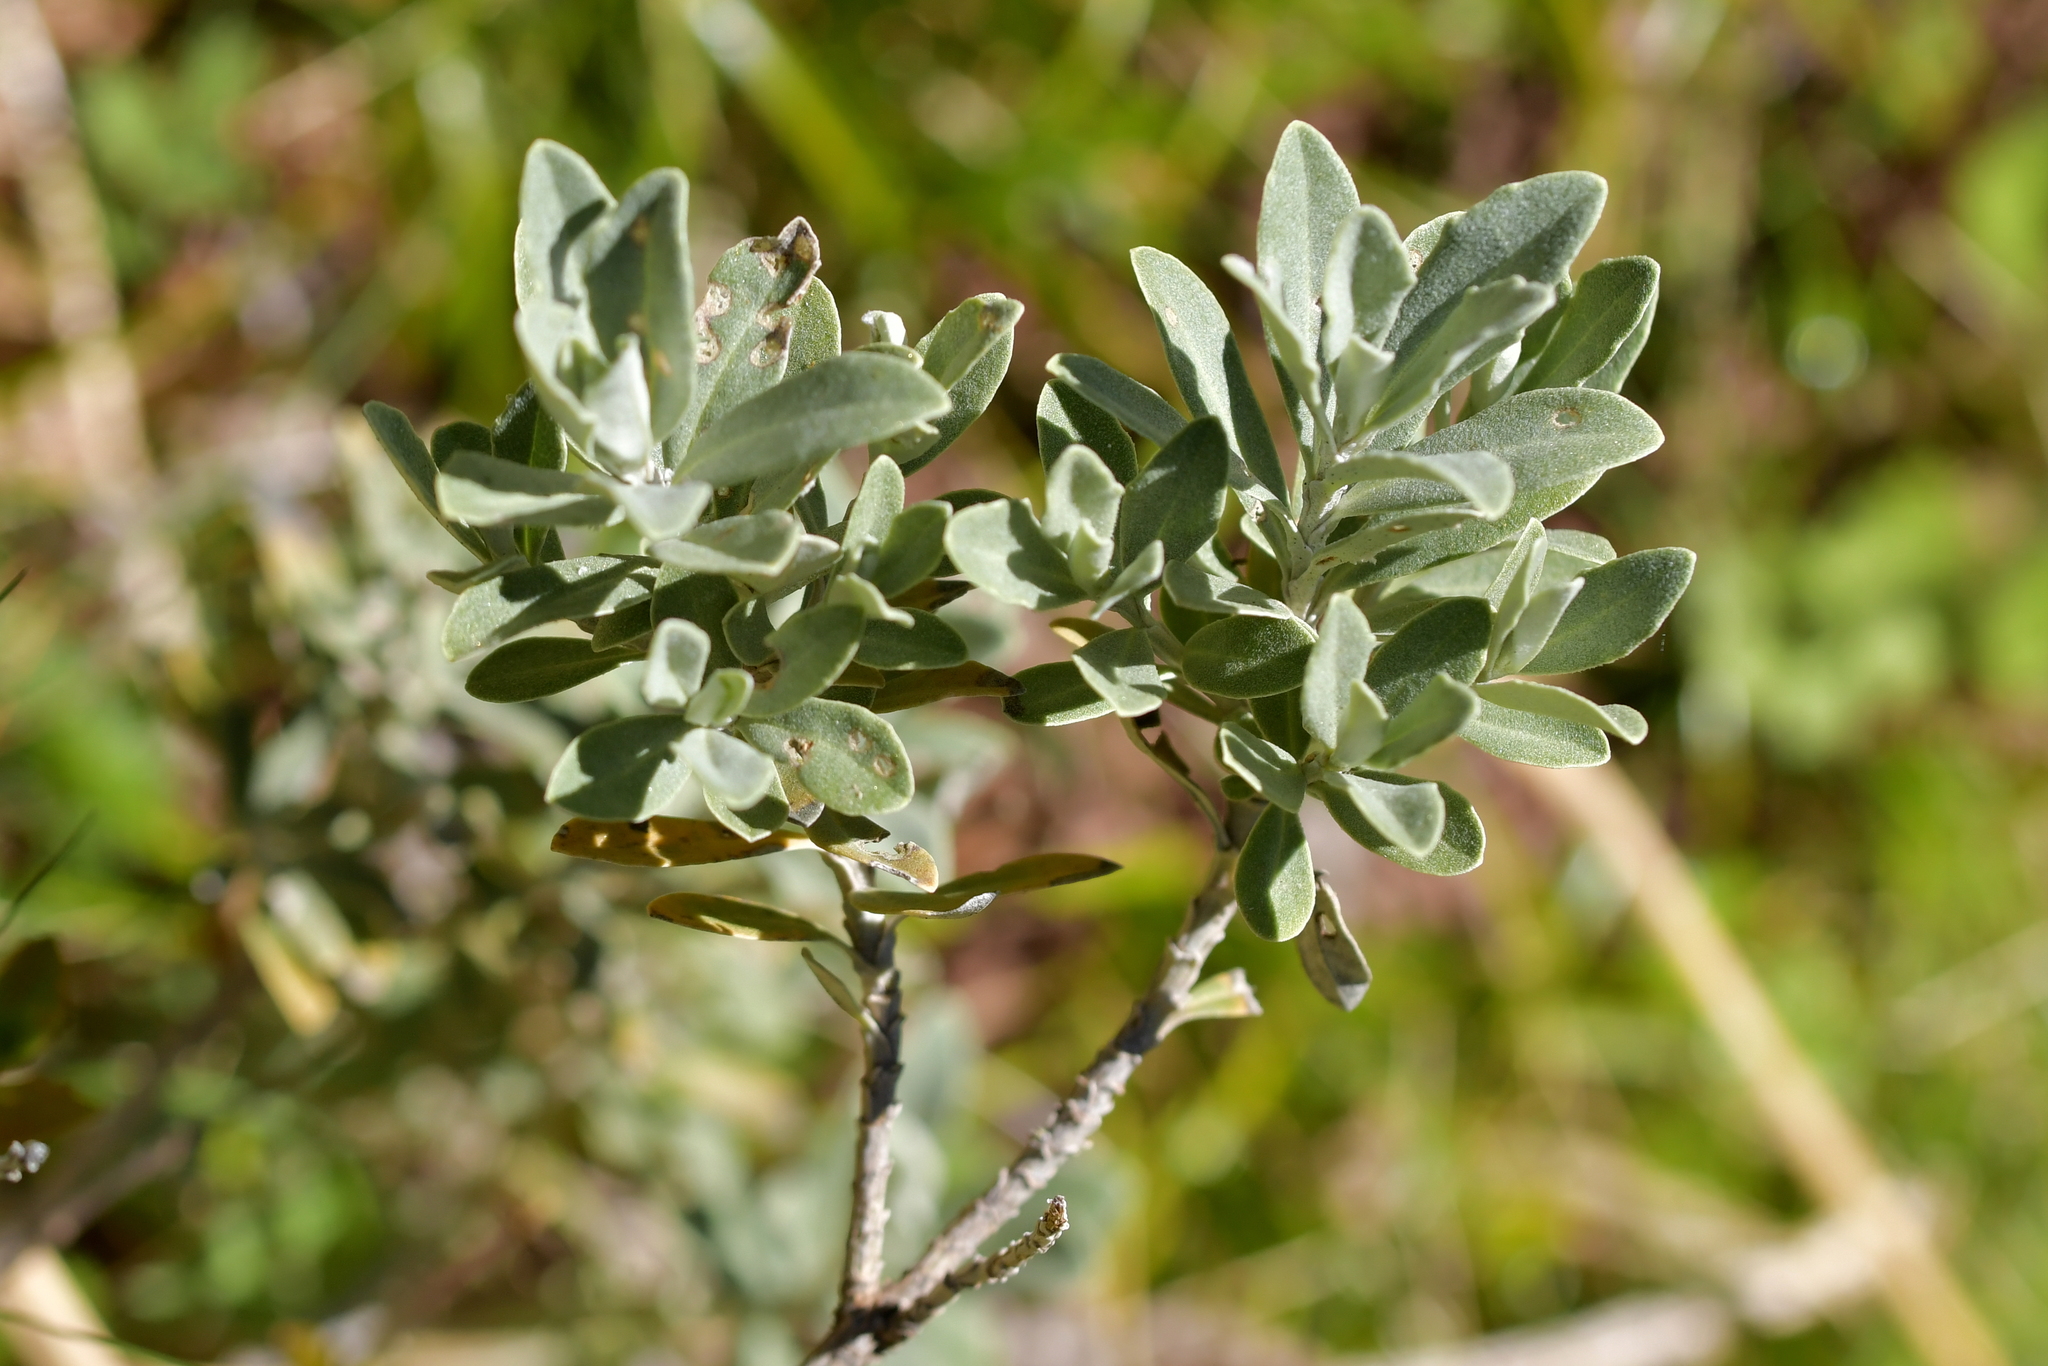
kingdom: Plantae
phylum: Tracheophyta
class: Magnoliopsida
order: Asterales
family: Asteraceae
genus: Olearia
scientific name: Olearia moschata
